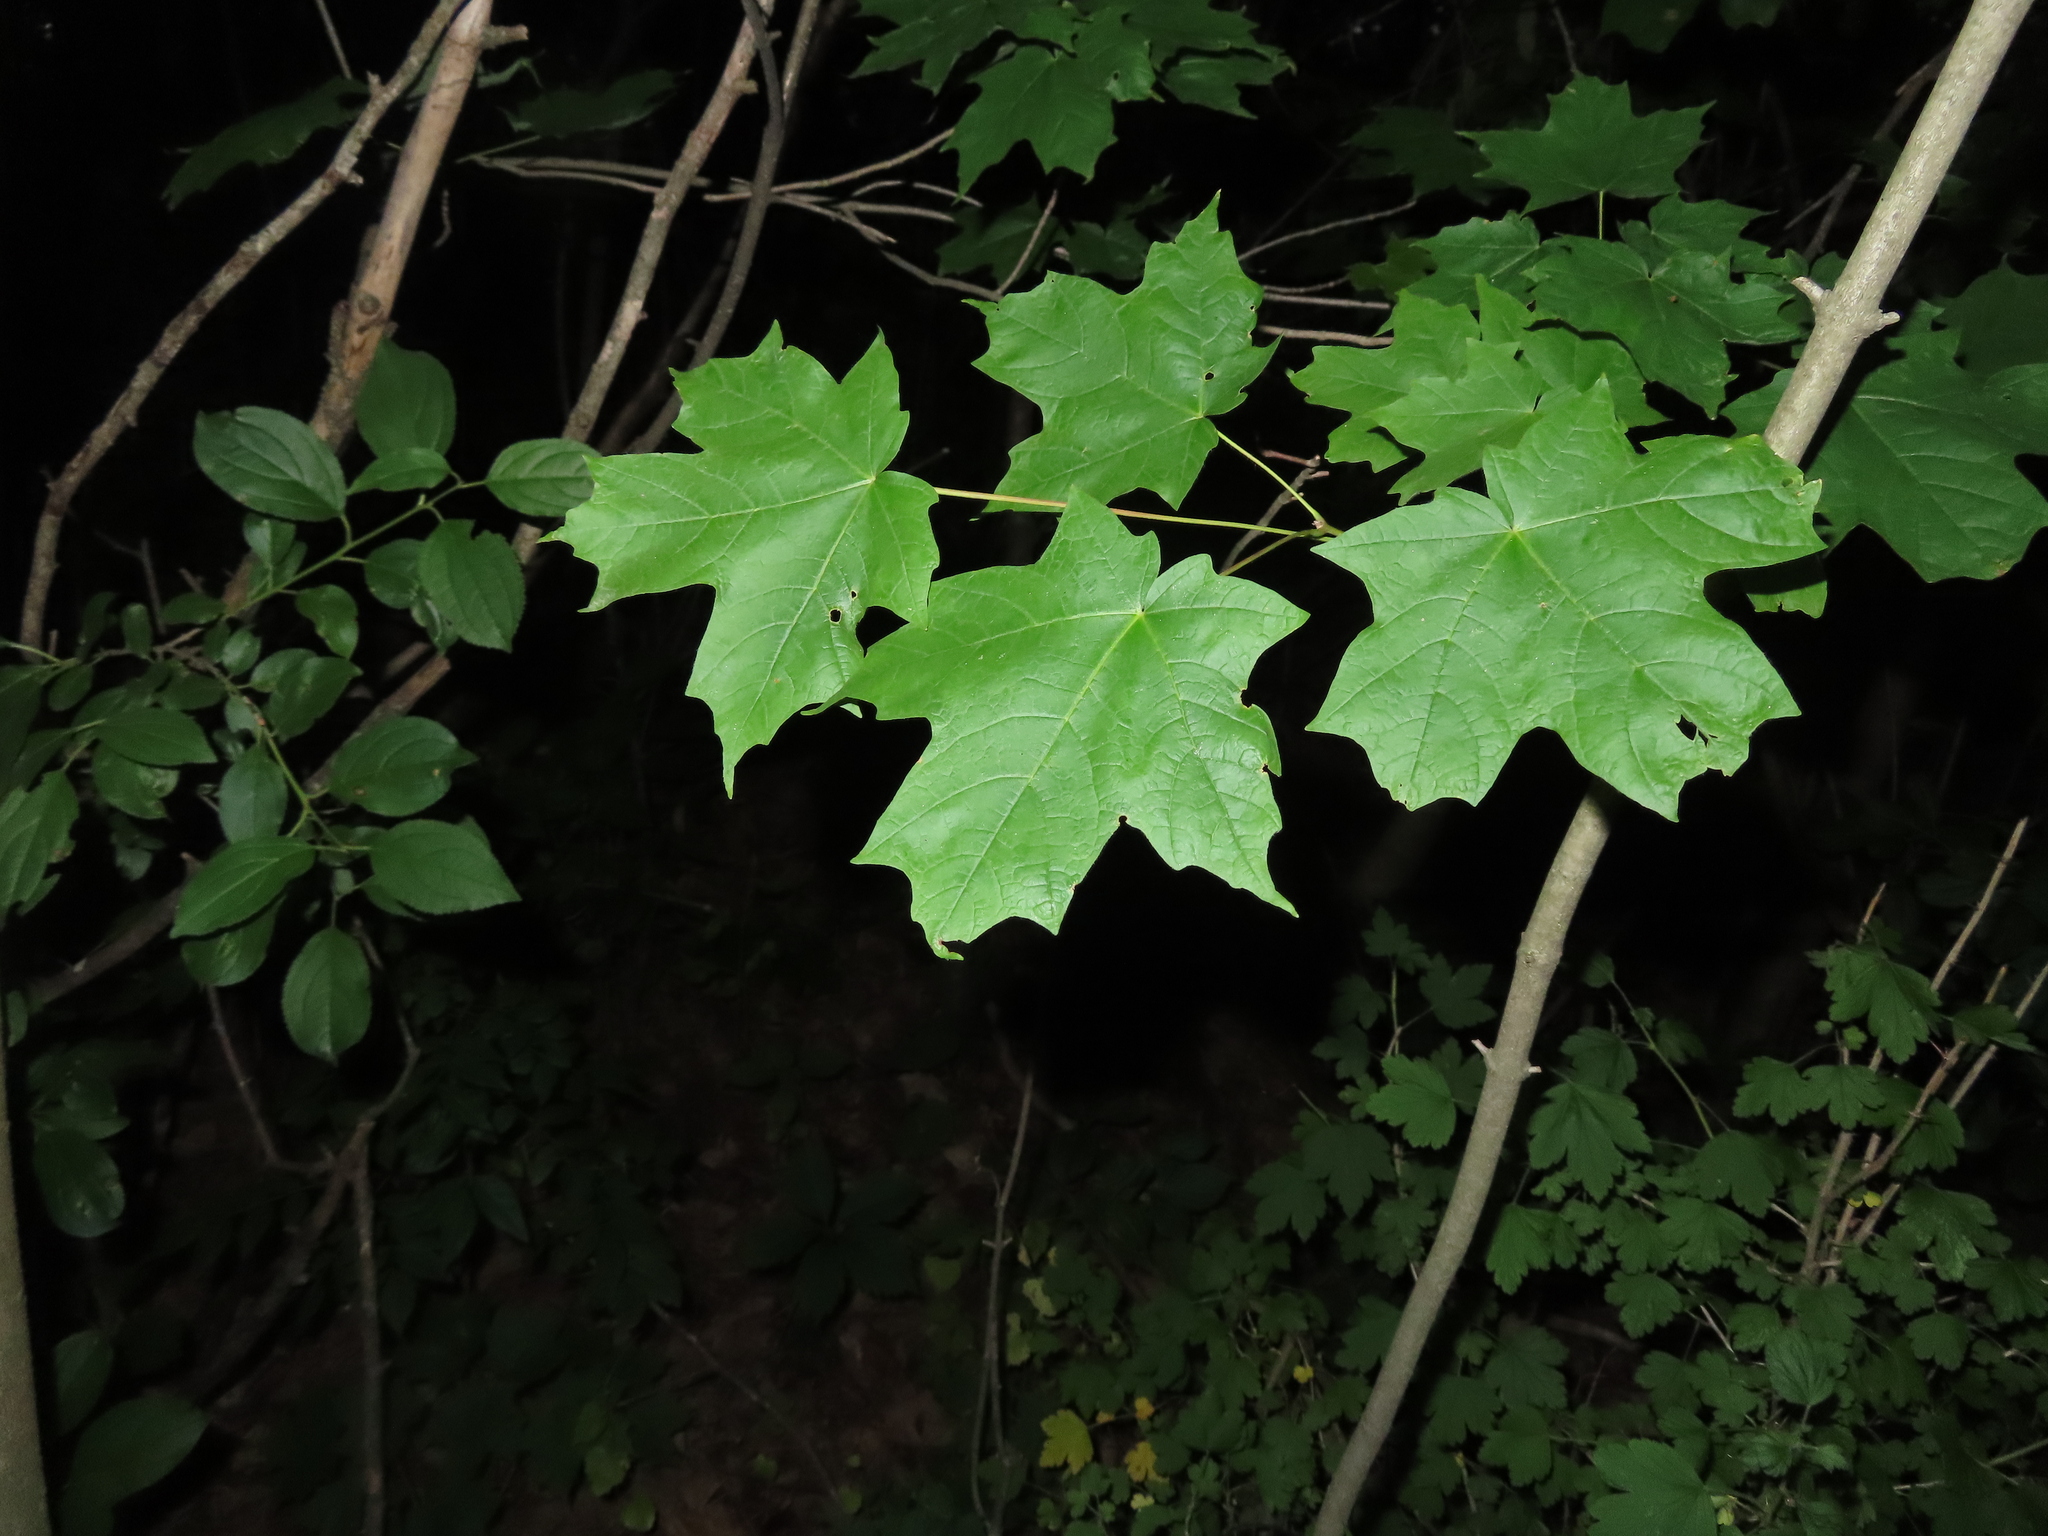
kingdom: Plantae
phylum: Tracheophyta
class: Magnoliopsida
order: Sapindales
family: Sapindaceae
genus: Acer
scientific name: Acer saccharum
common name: Sugar maple
